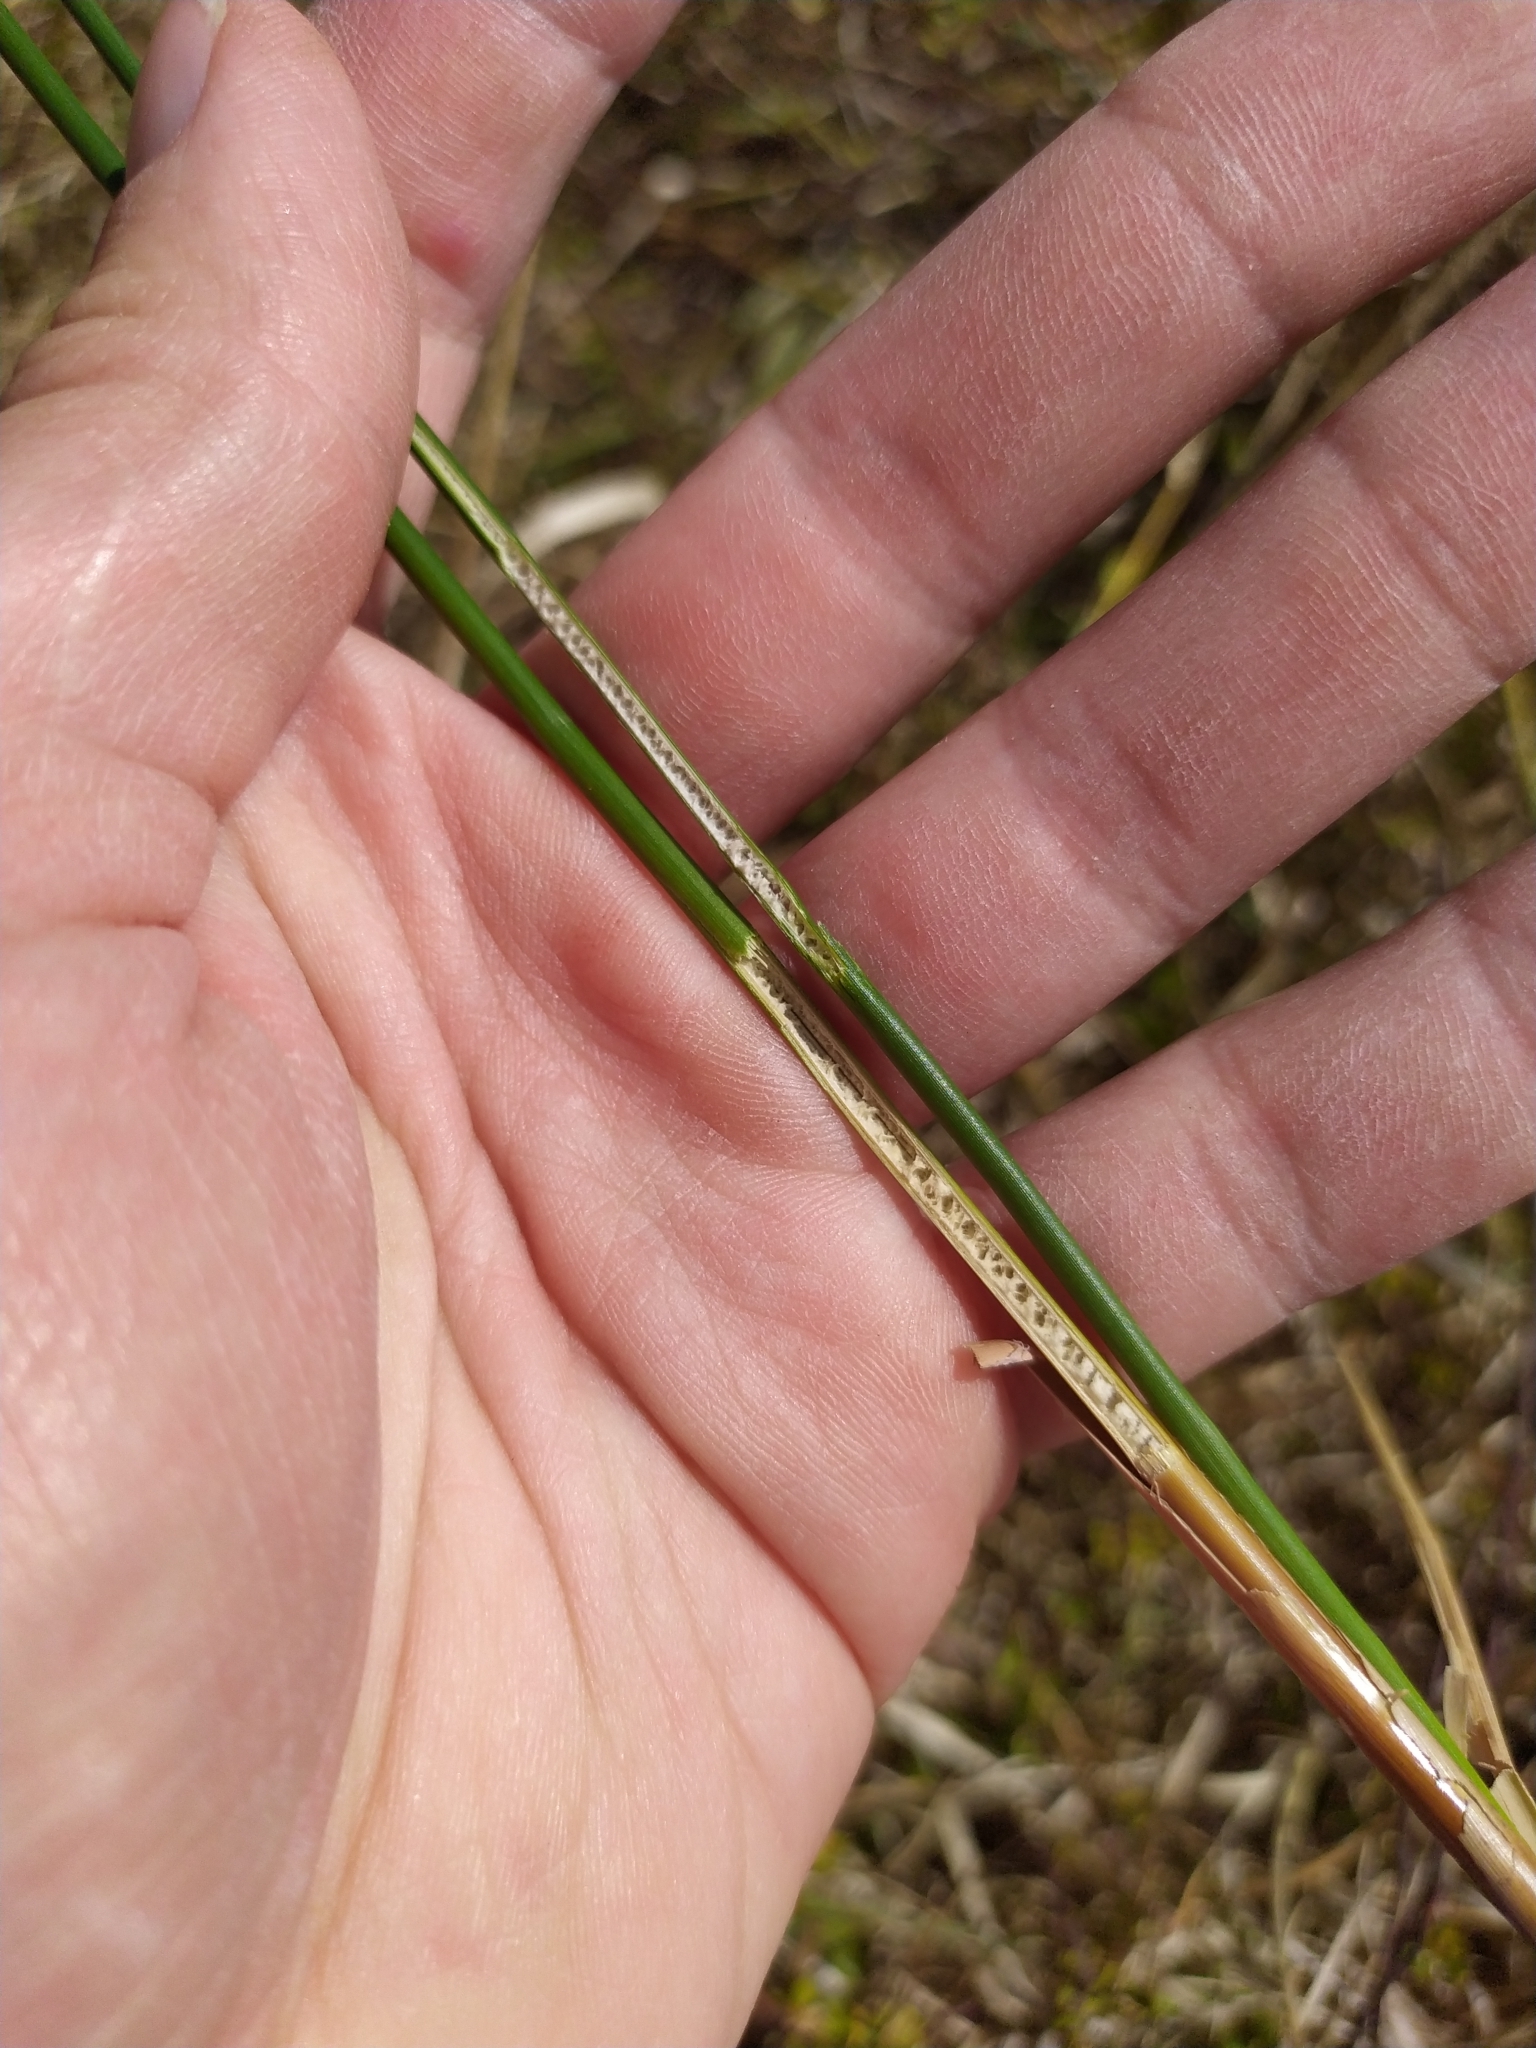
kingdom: Plantae
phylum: Tracheophyta
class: Liliopsida
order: Poales
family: Juncaceae
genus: Juncus
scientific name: Juncus edgariae
